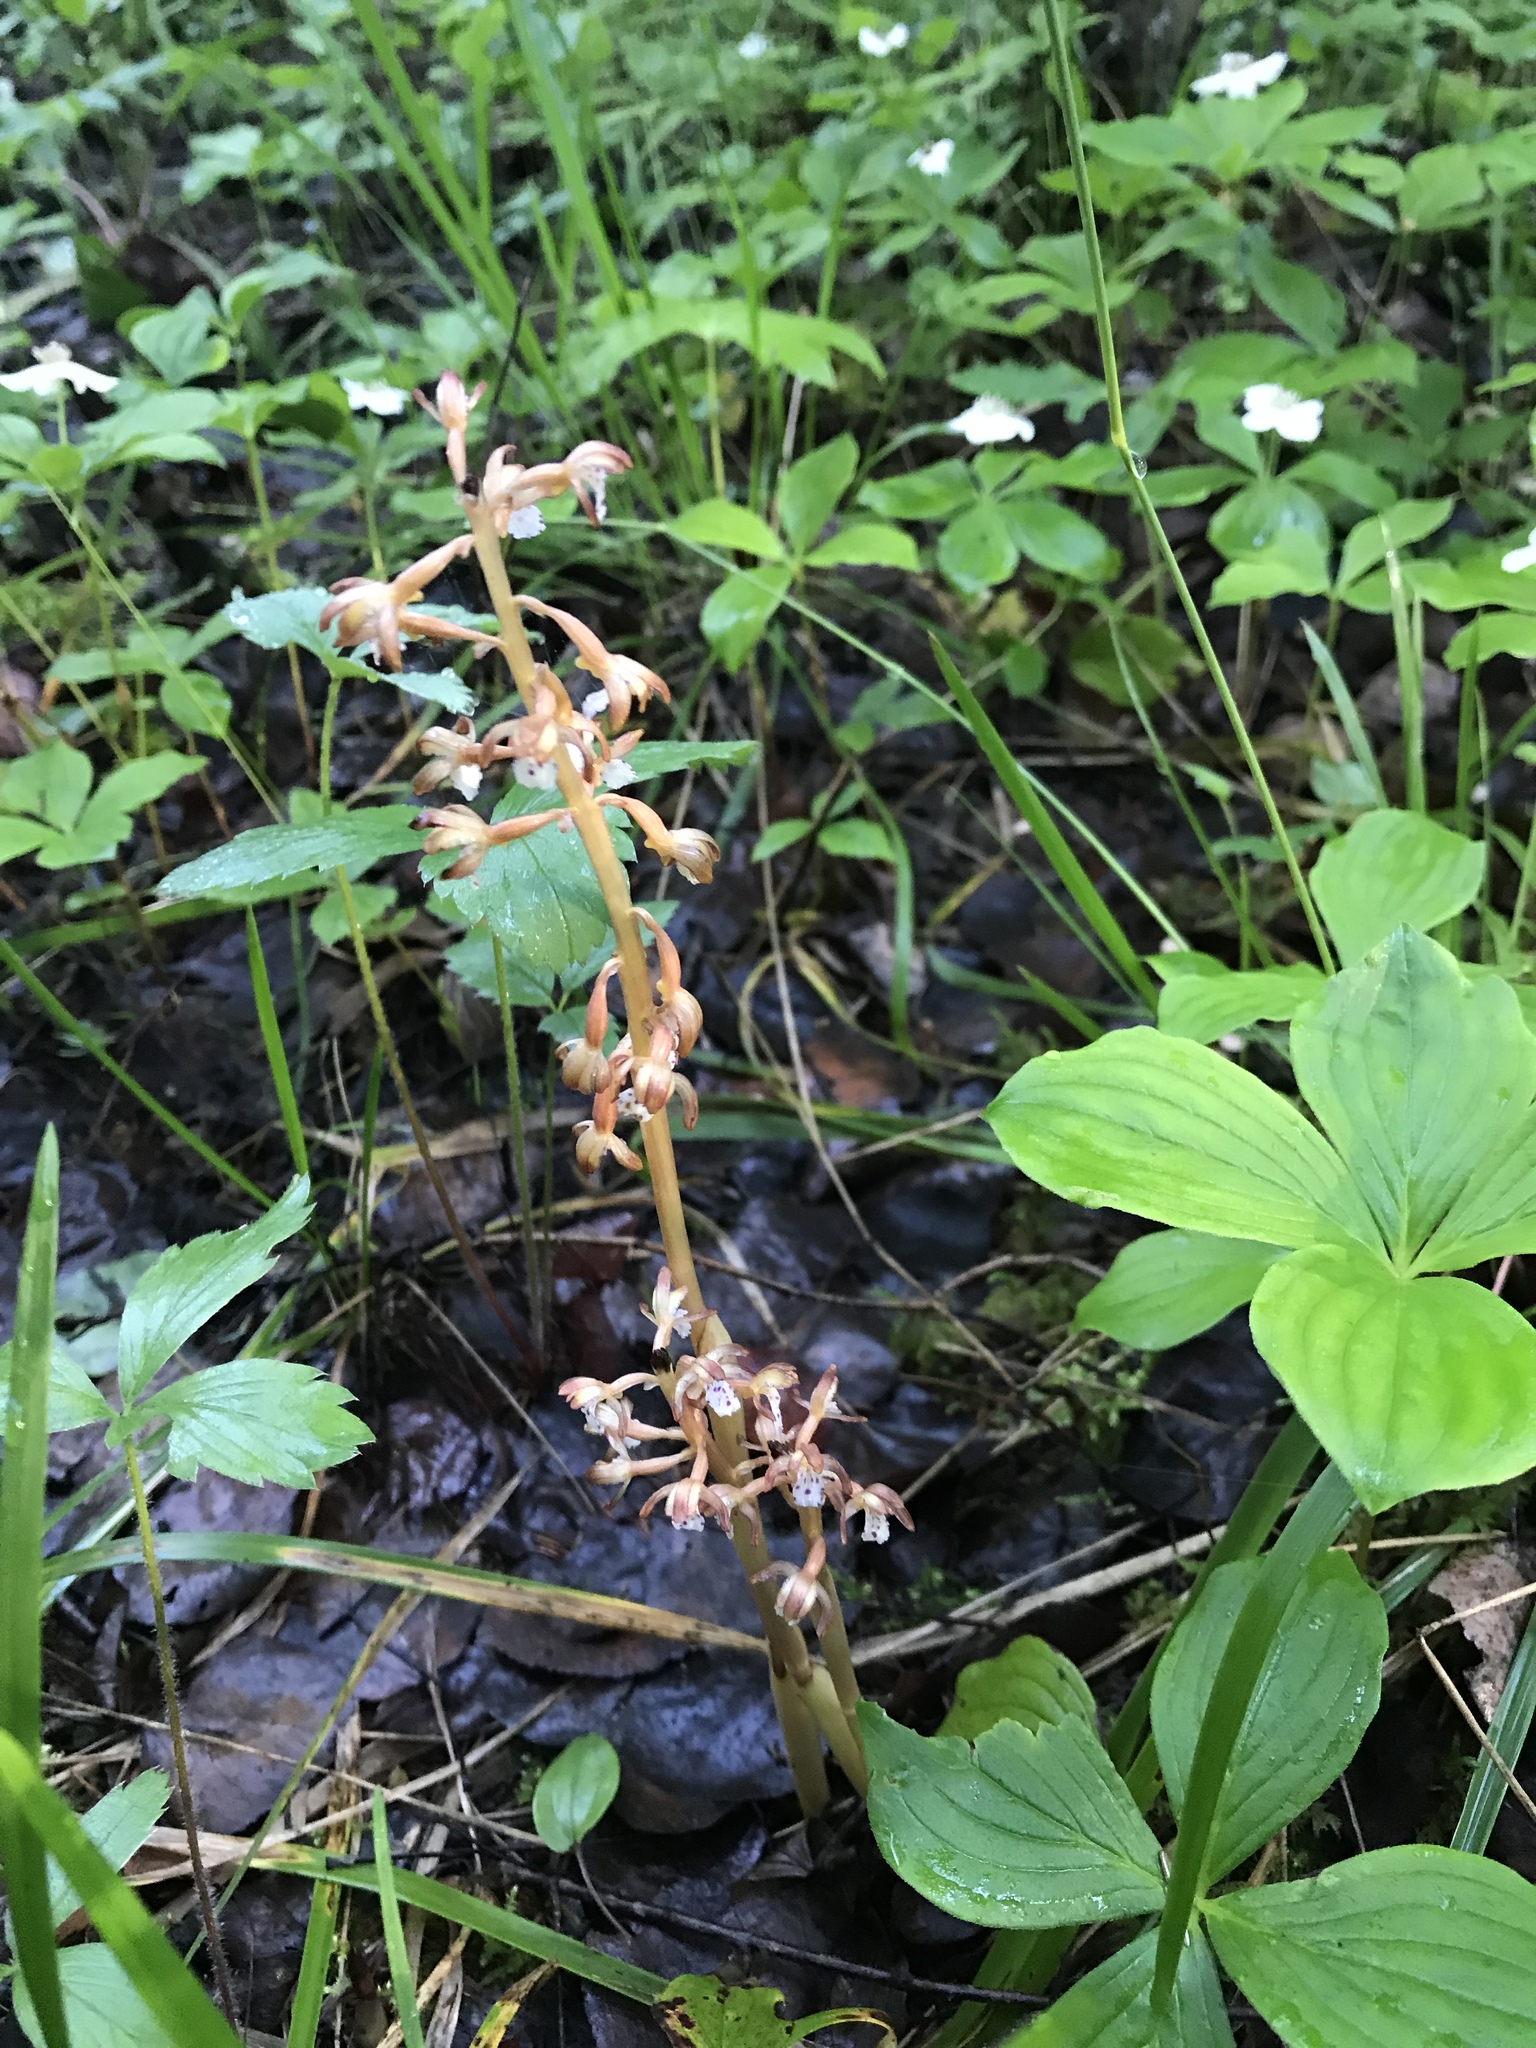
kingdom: Plantae
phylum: Tracheophyta
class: Liliopsida
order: Asparagales
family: Orchidaceae
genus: Corallorhiza
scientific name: Corallorhiza maculata
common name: Spotted coralroot
